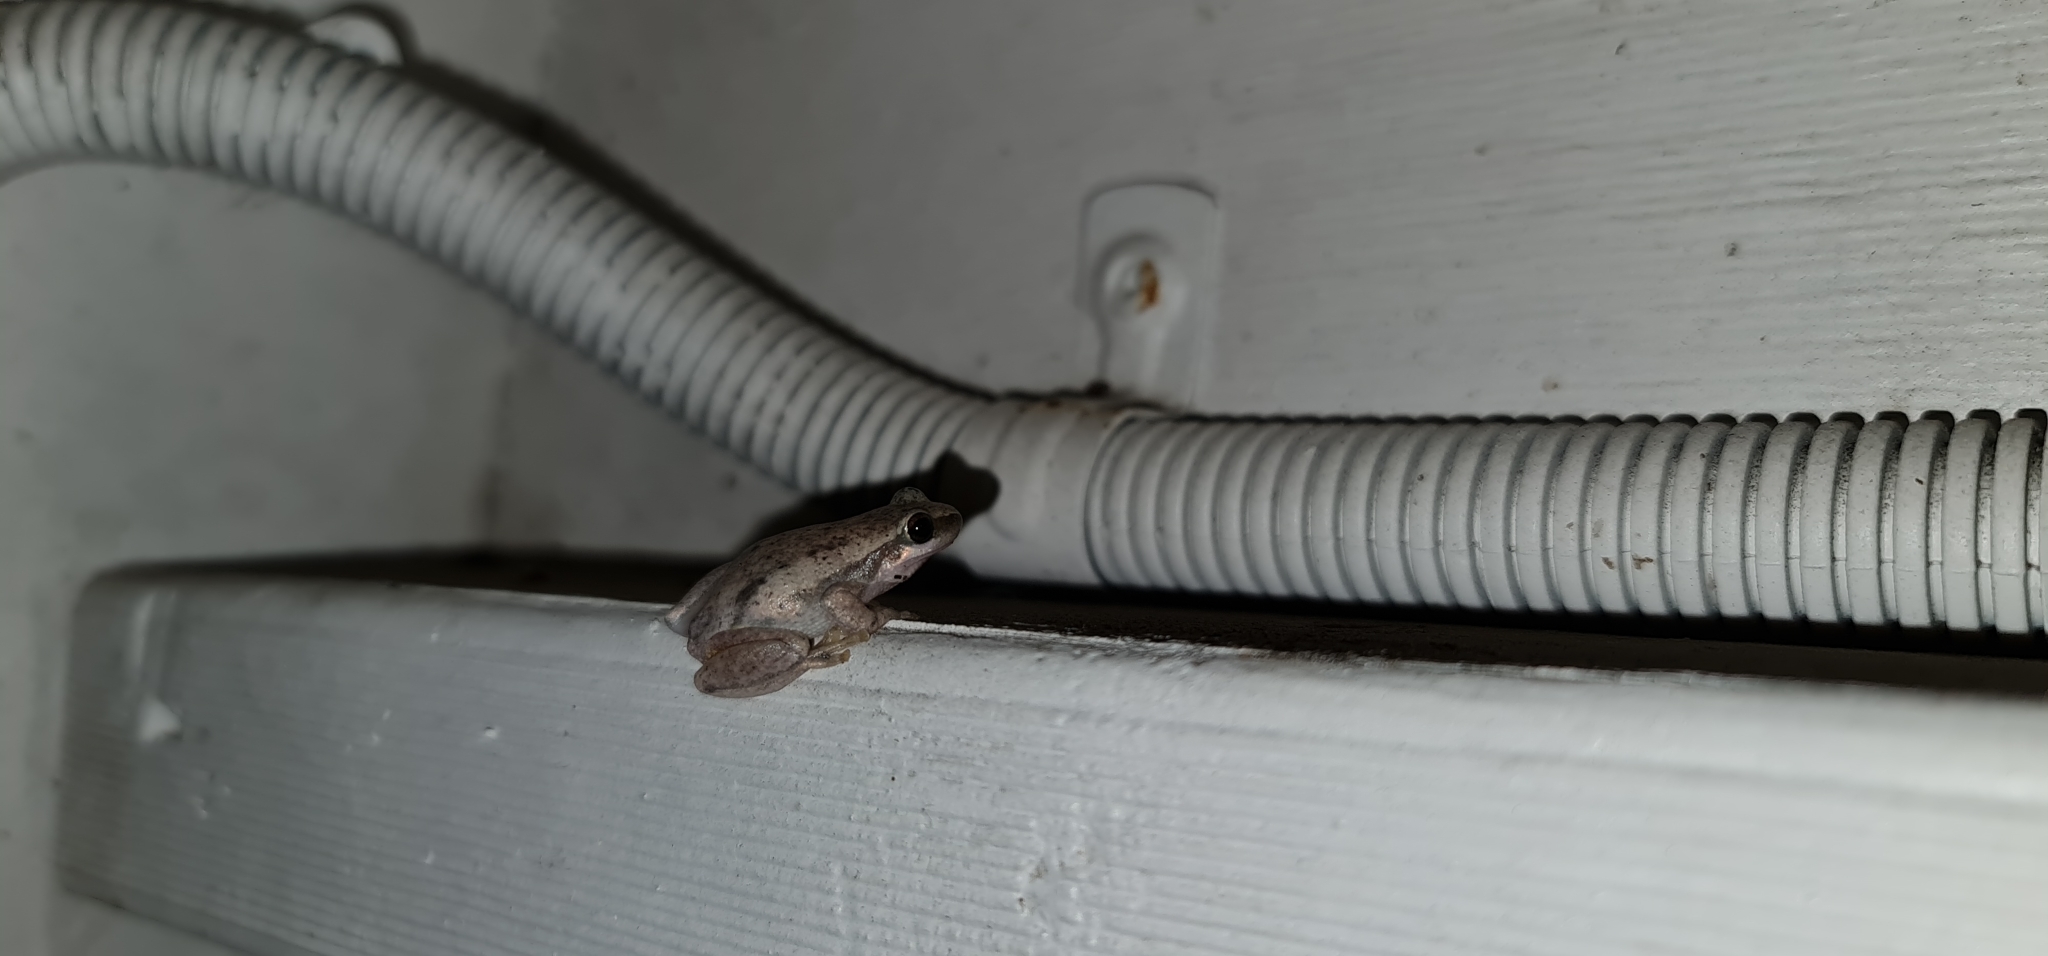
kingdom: Animalia
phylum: Chordata
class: Amphibia
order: Anura
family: Pelodryadidae
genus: Litoria
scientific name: Litoria rubella
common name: Desert tree frog
